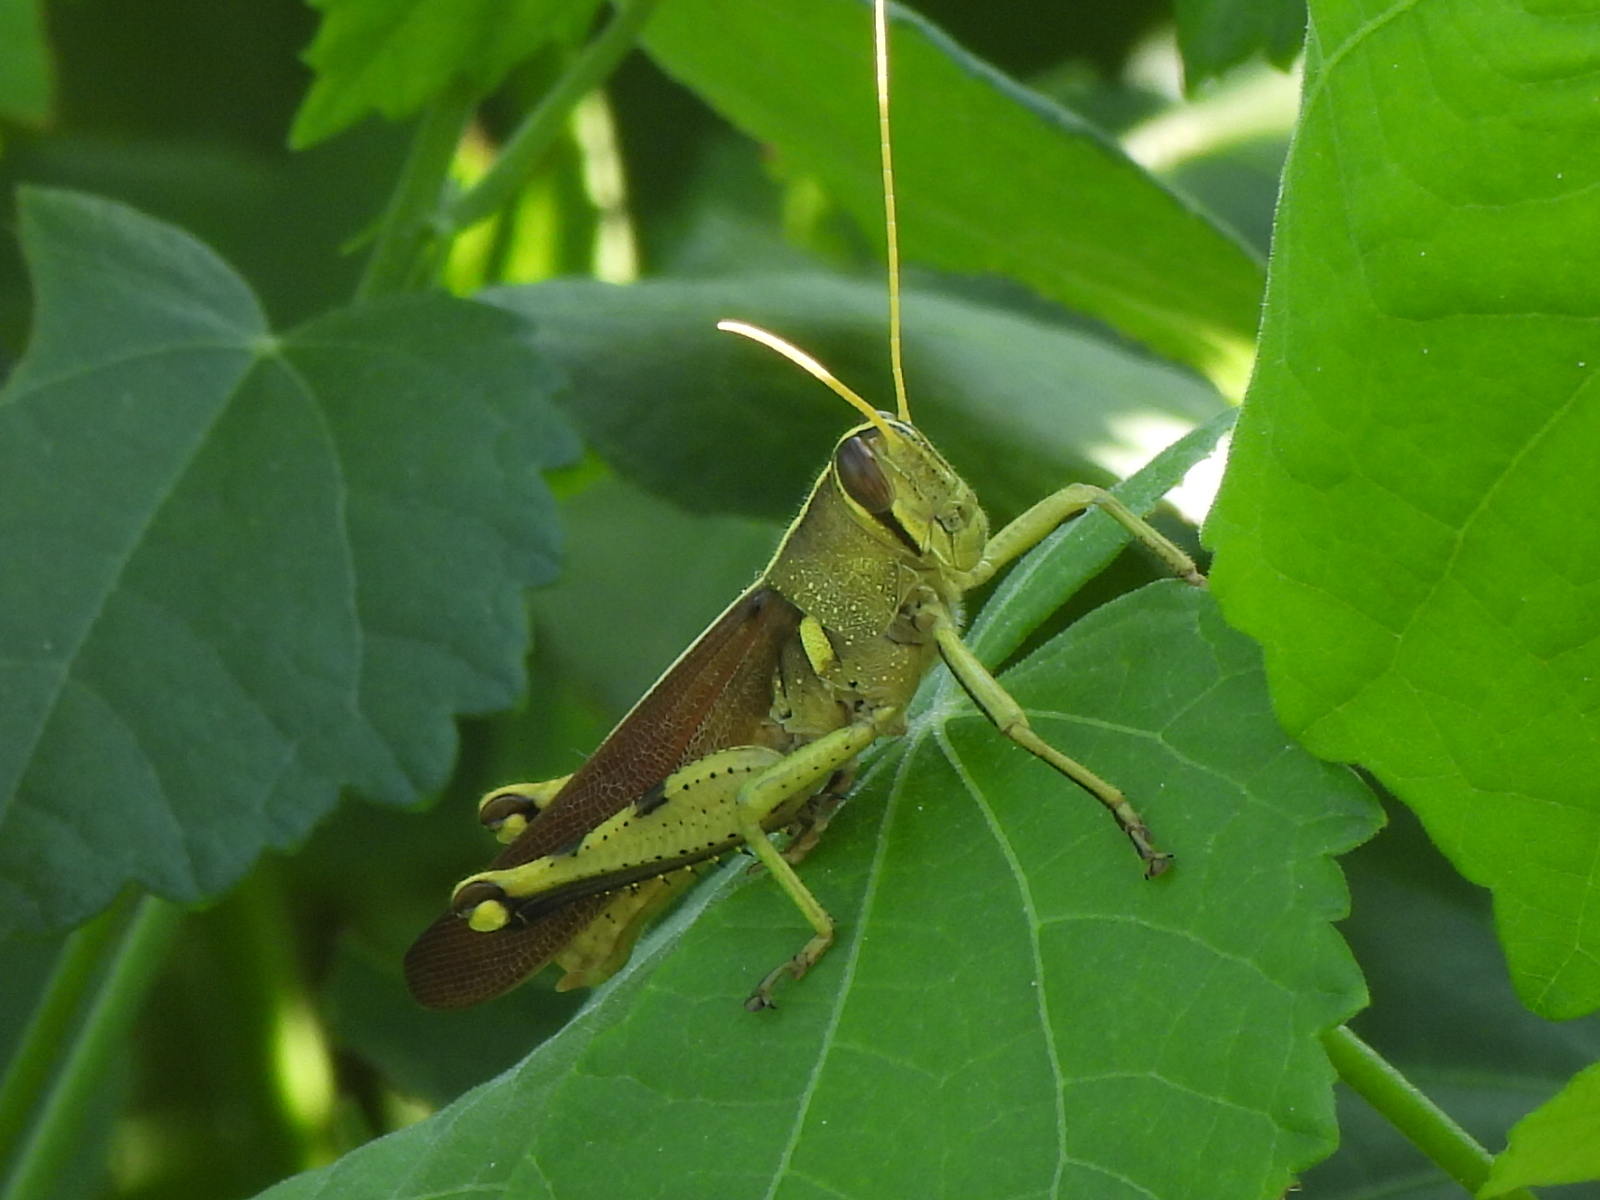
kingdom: Animalia
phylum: Arthropoda
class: Insecta
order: Orthoptera
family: Acrididae
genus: Schistocerca
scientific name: Schistocerca obscura
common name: Obscure bird grasshopper
